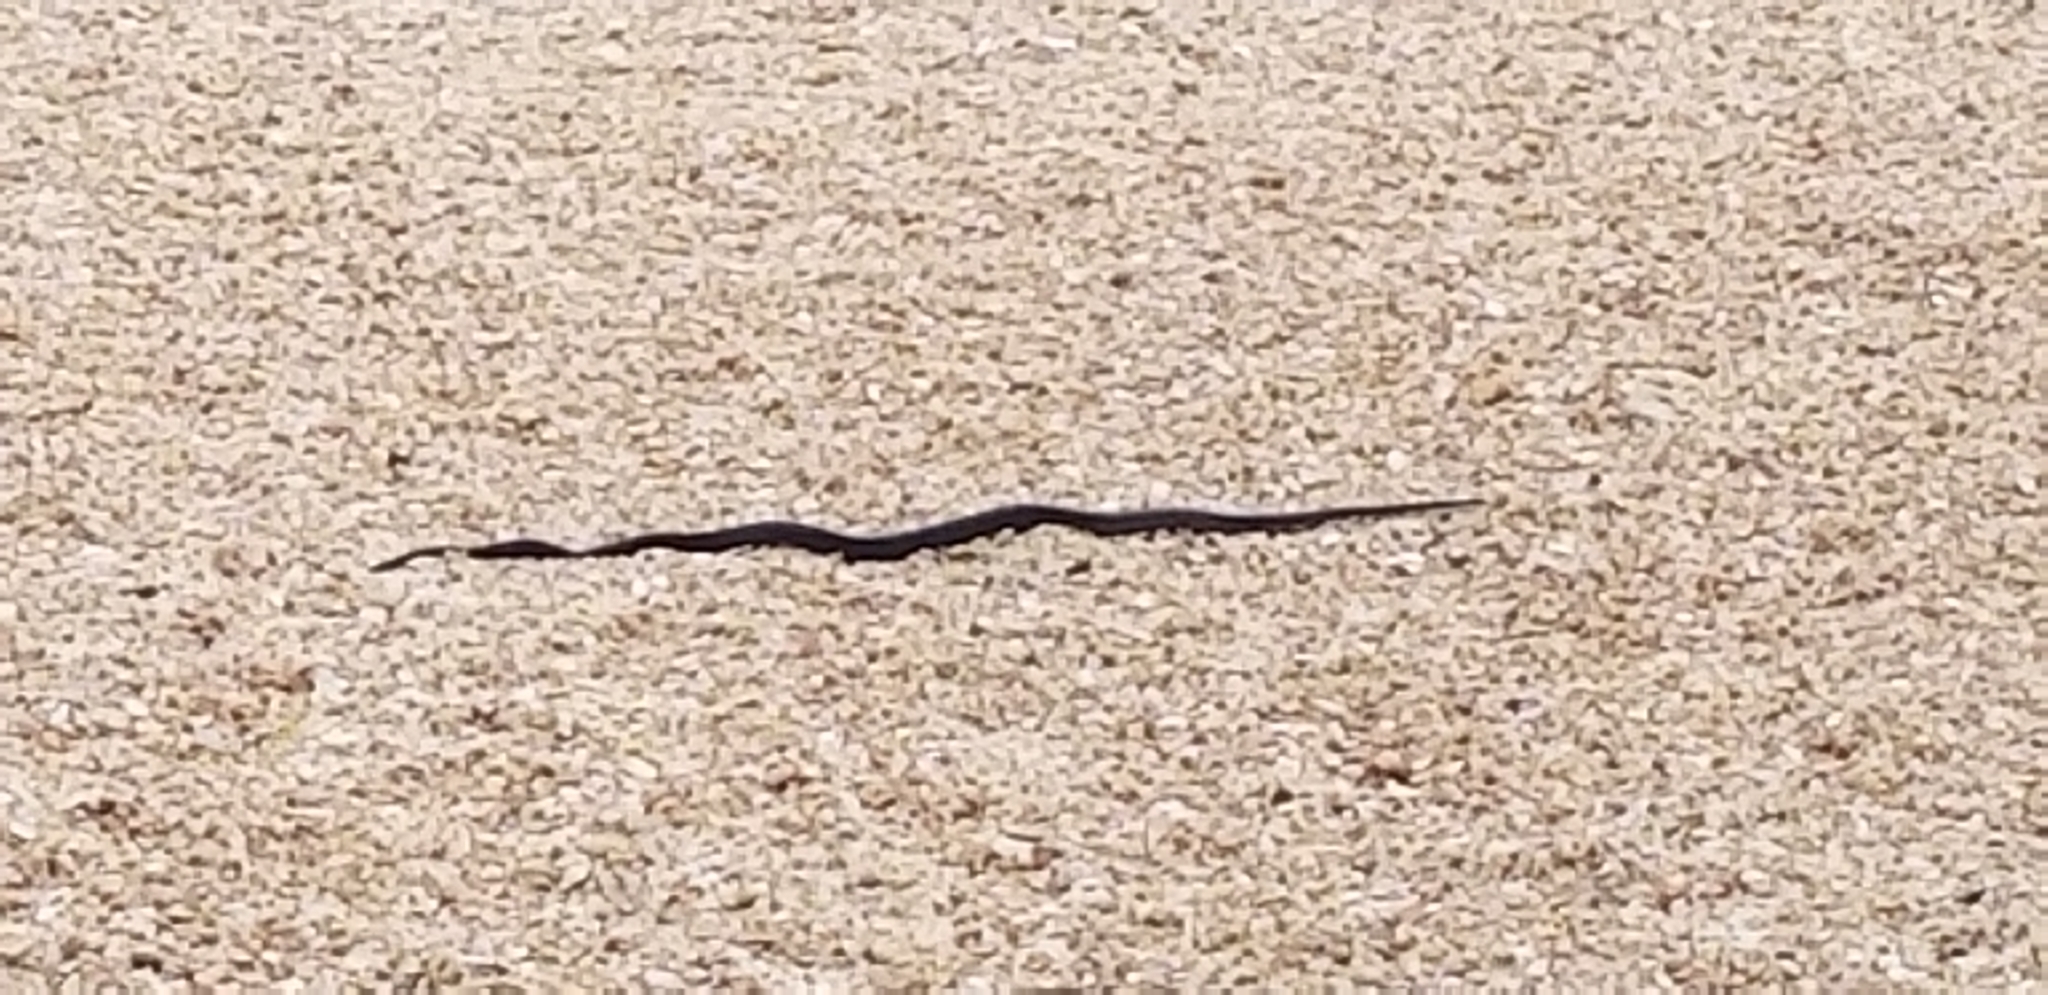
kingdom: Animalia
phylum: Chordata
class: Squamata
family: Colubridae
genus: Pantherophis
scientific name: Pantherophis obsoletus
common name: Black rat snake
